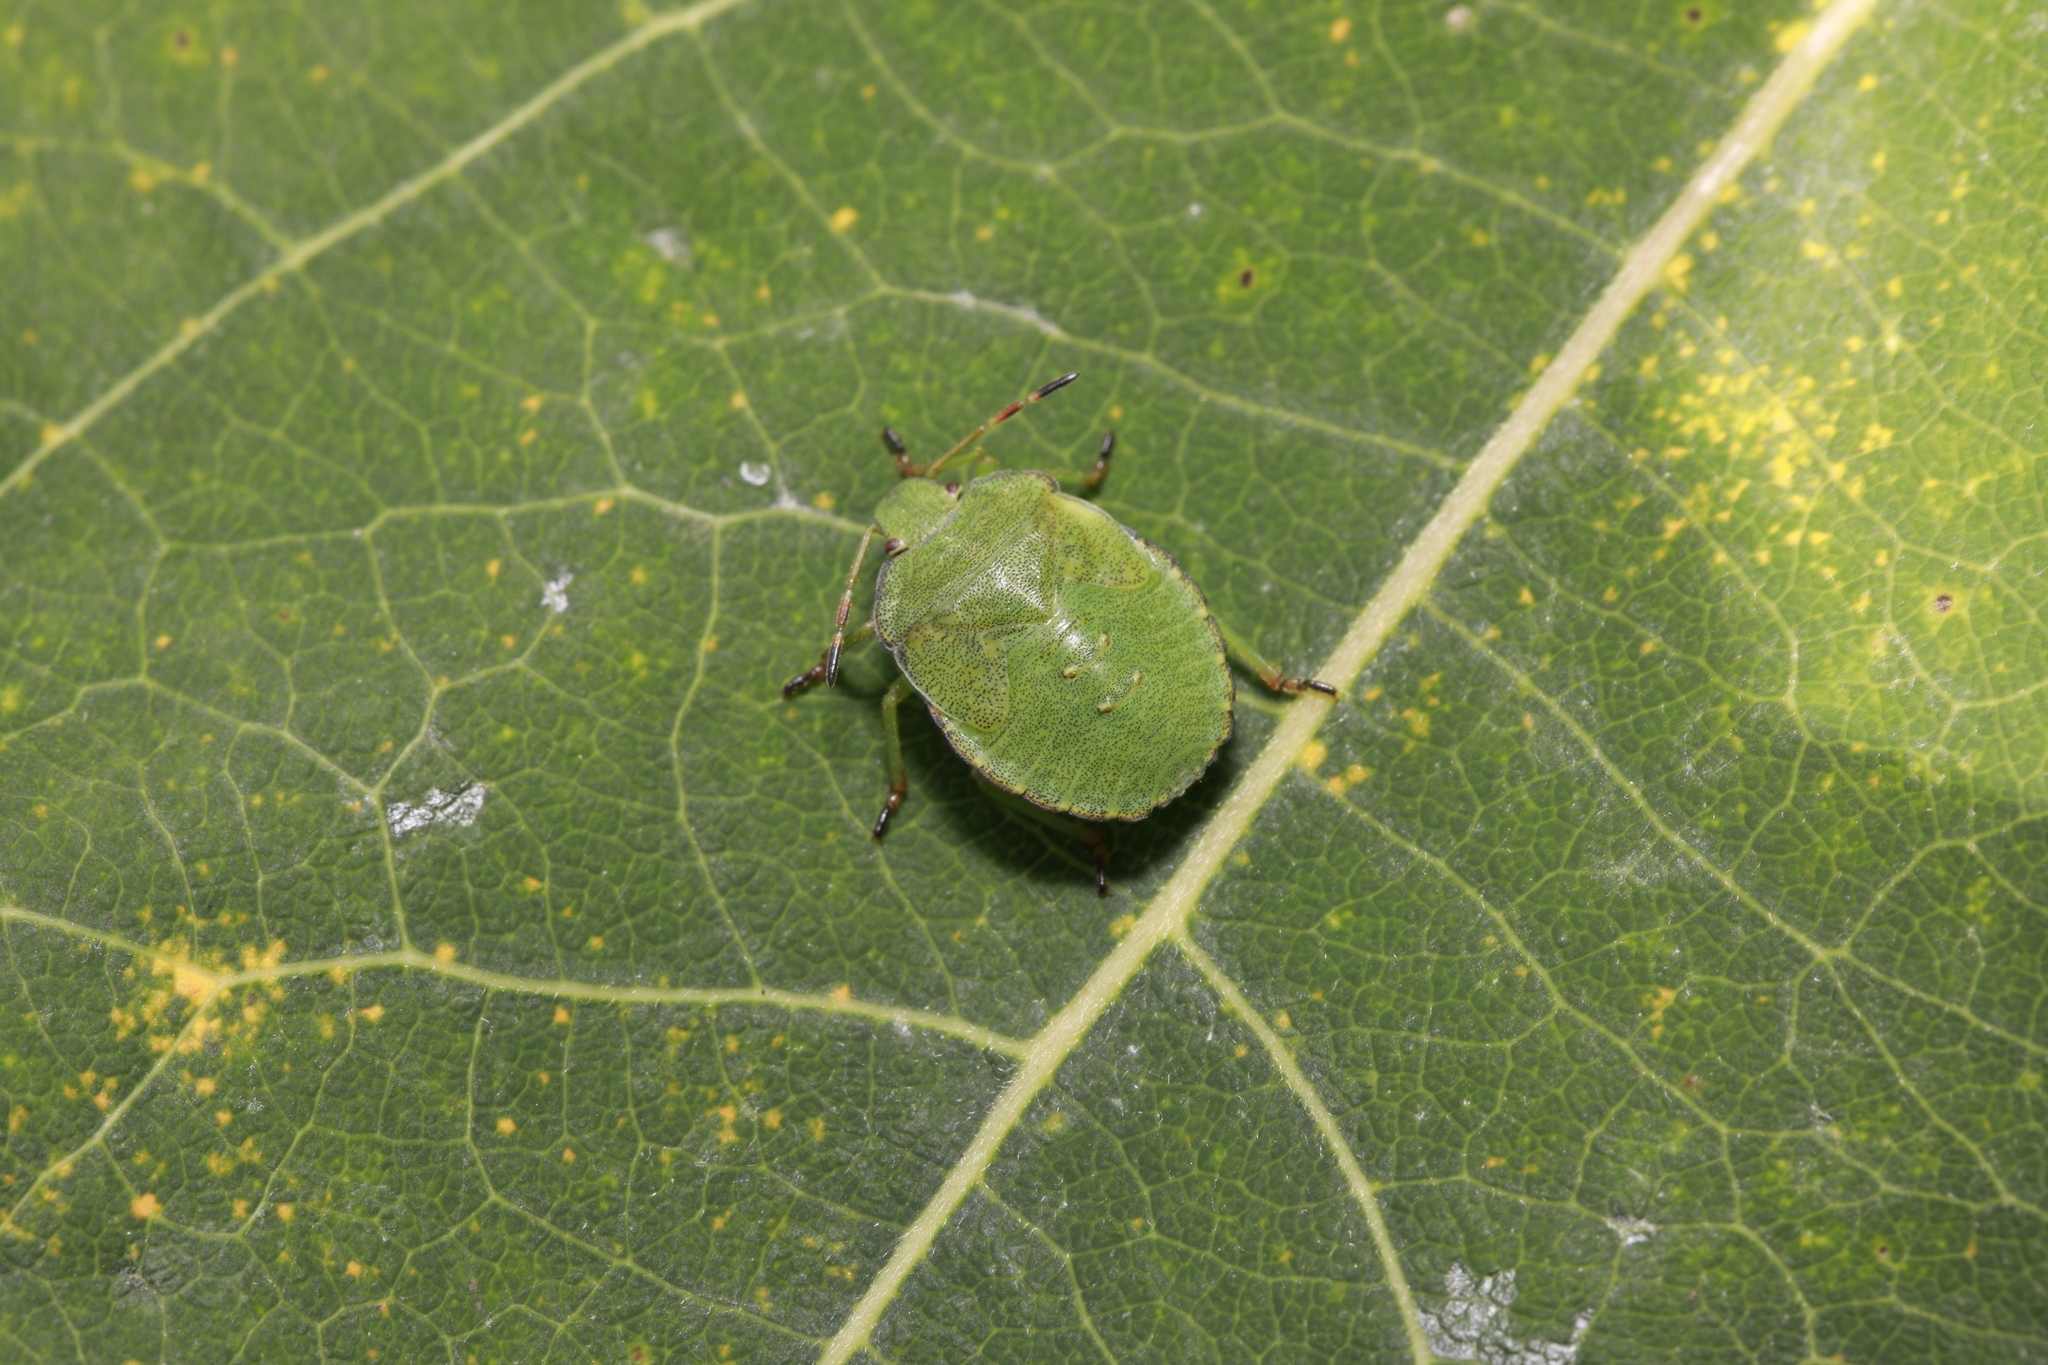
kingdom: Animalia
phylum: Arthropoda
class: Insecta
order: Hemiptera
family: Pentatomidae
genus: Palomena
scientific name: Palomena prasina
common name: Green shieldbug
